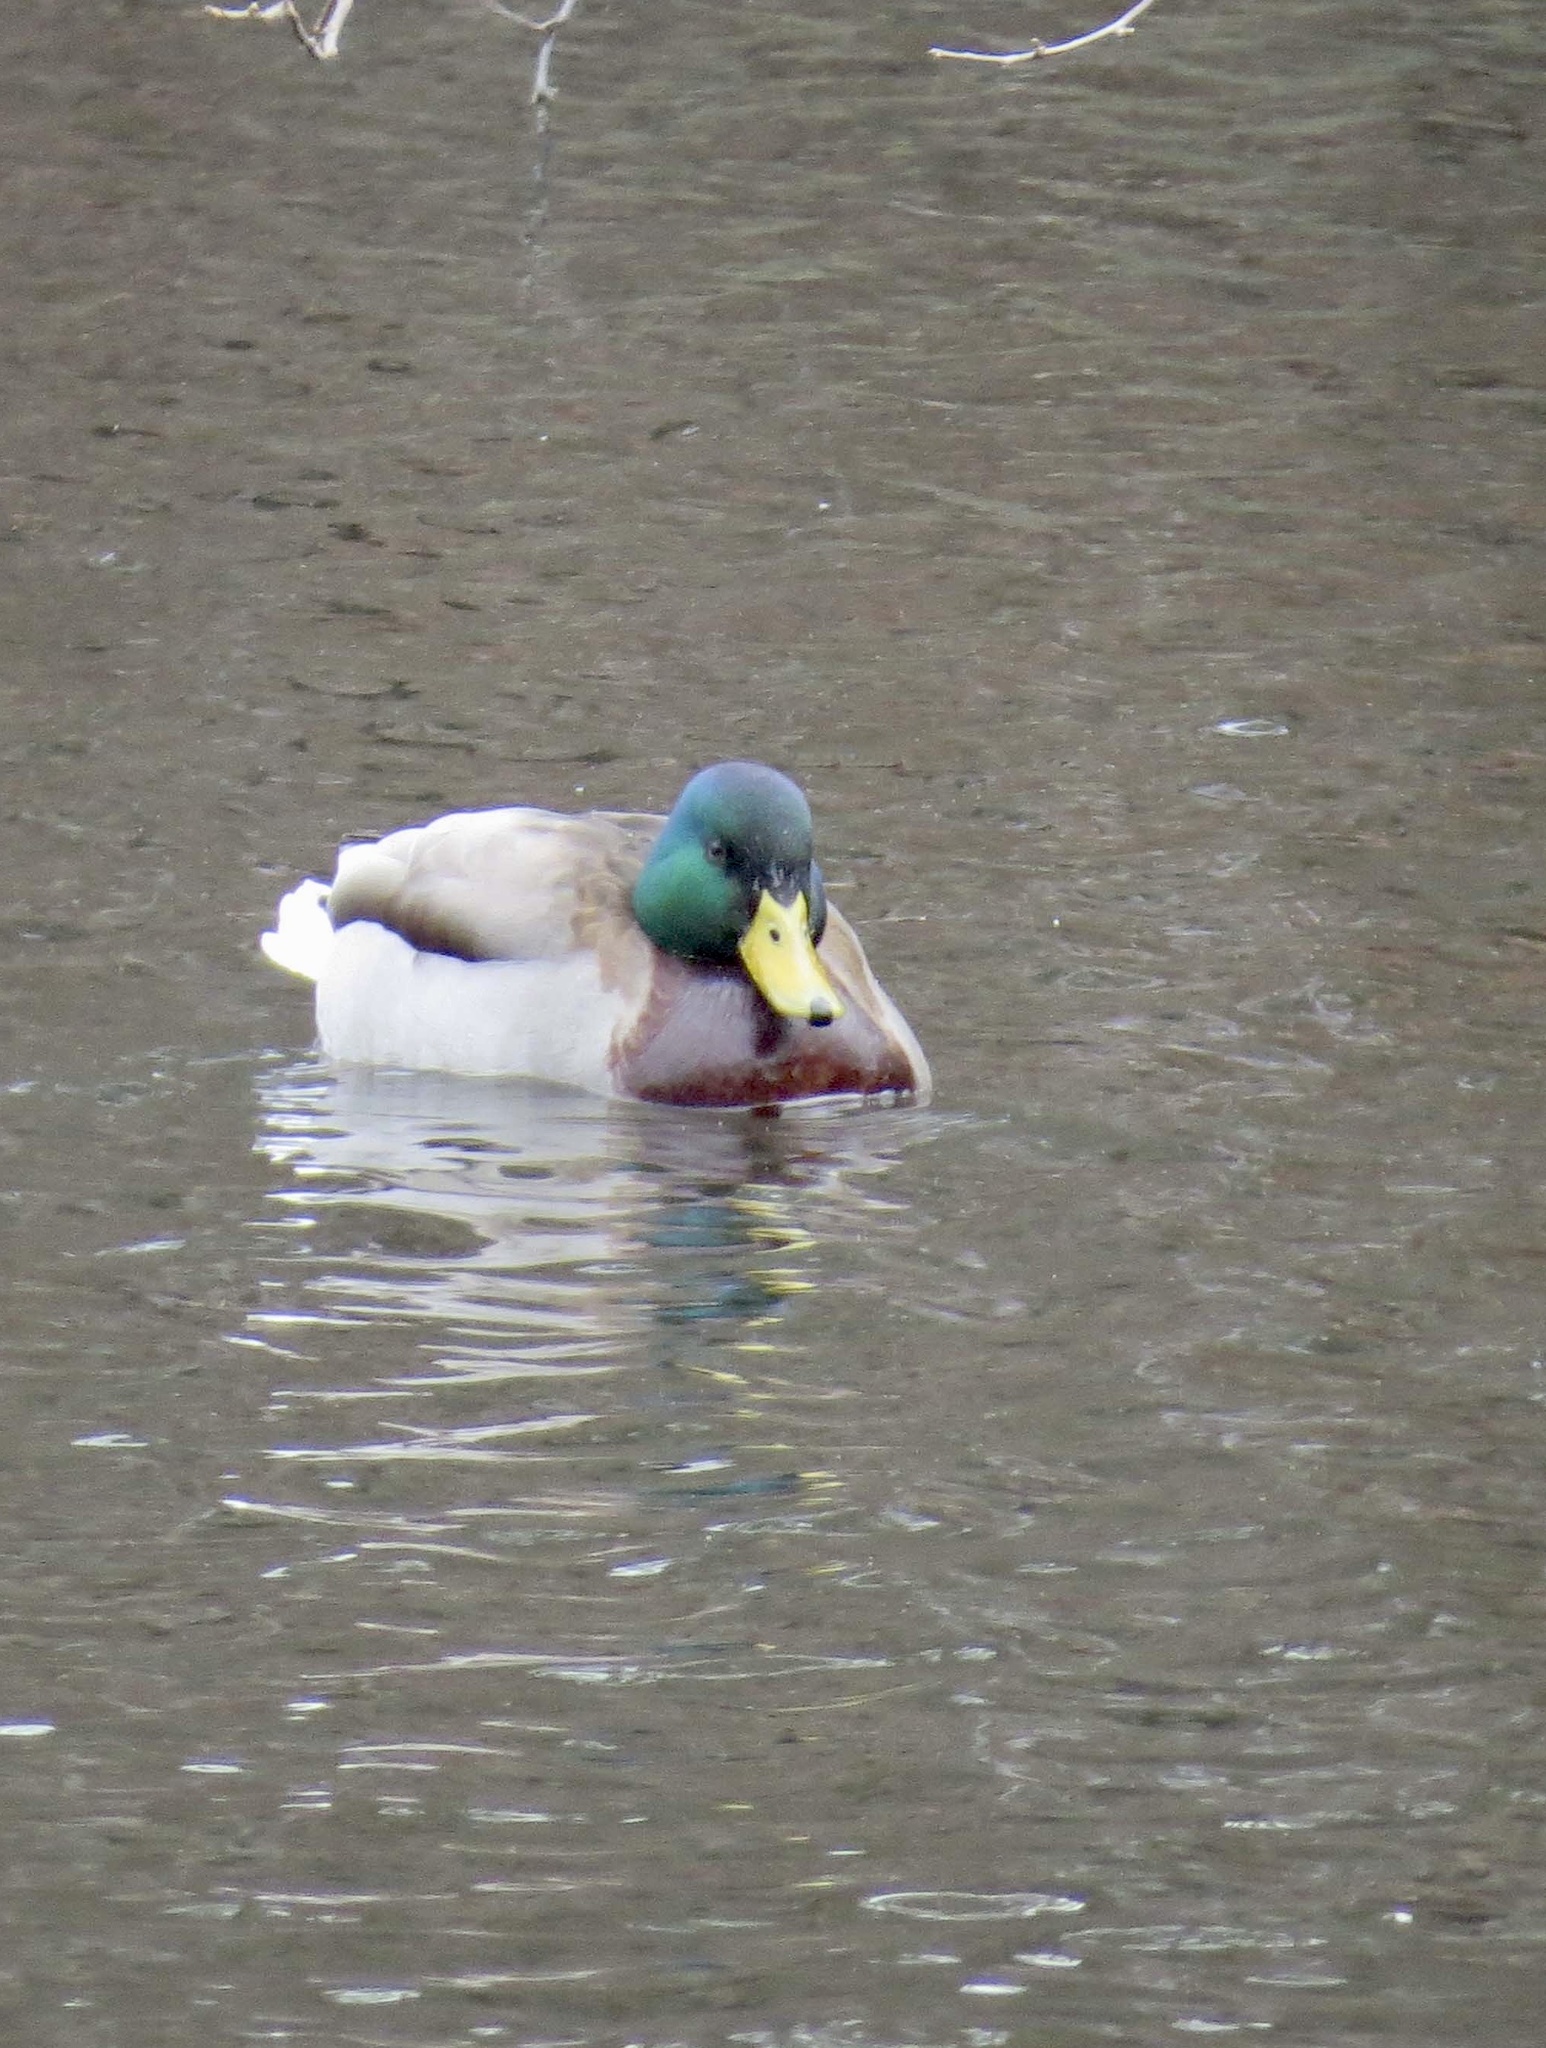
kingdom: Animalia
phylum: Chordata
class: Aves
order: Anseriformes
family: Anatidae
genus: Anas
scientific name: Anas platyrhynchos
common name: Mallard
